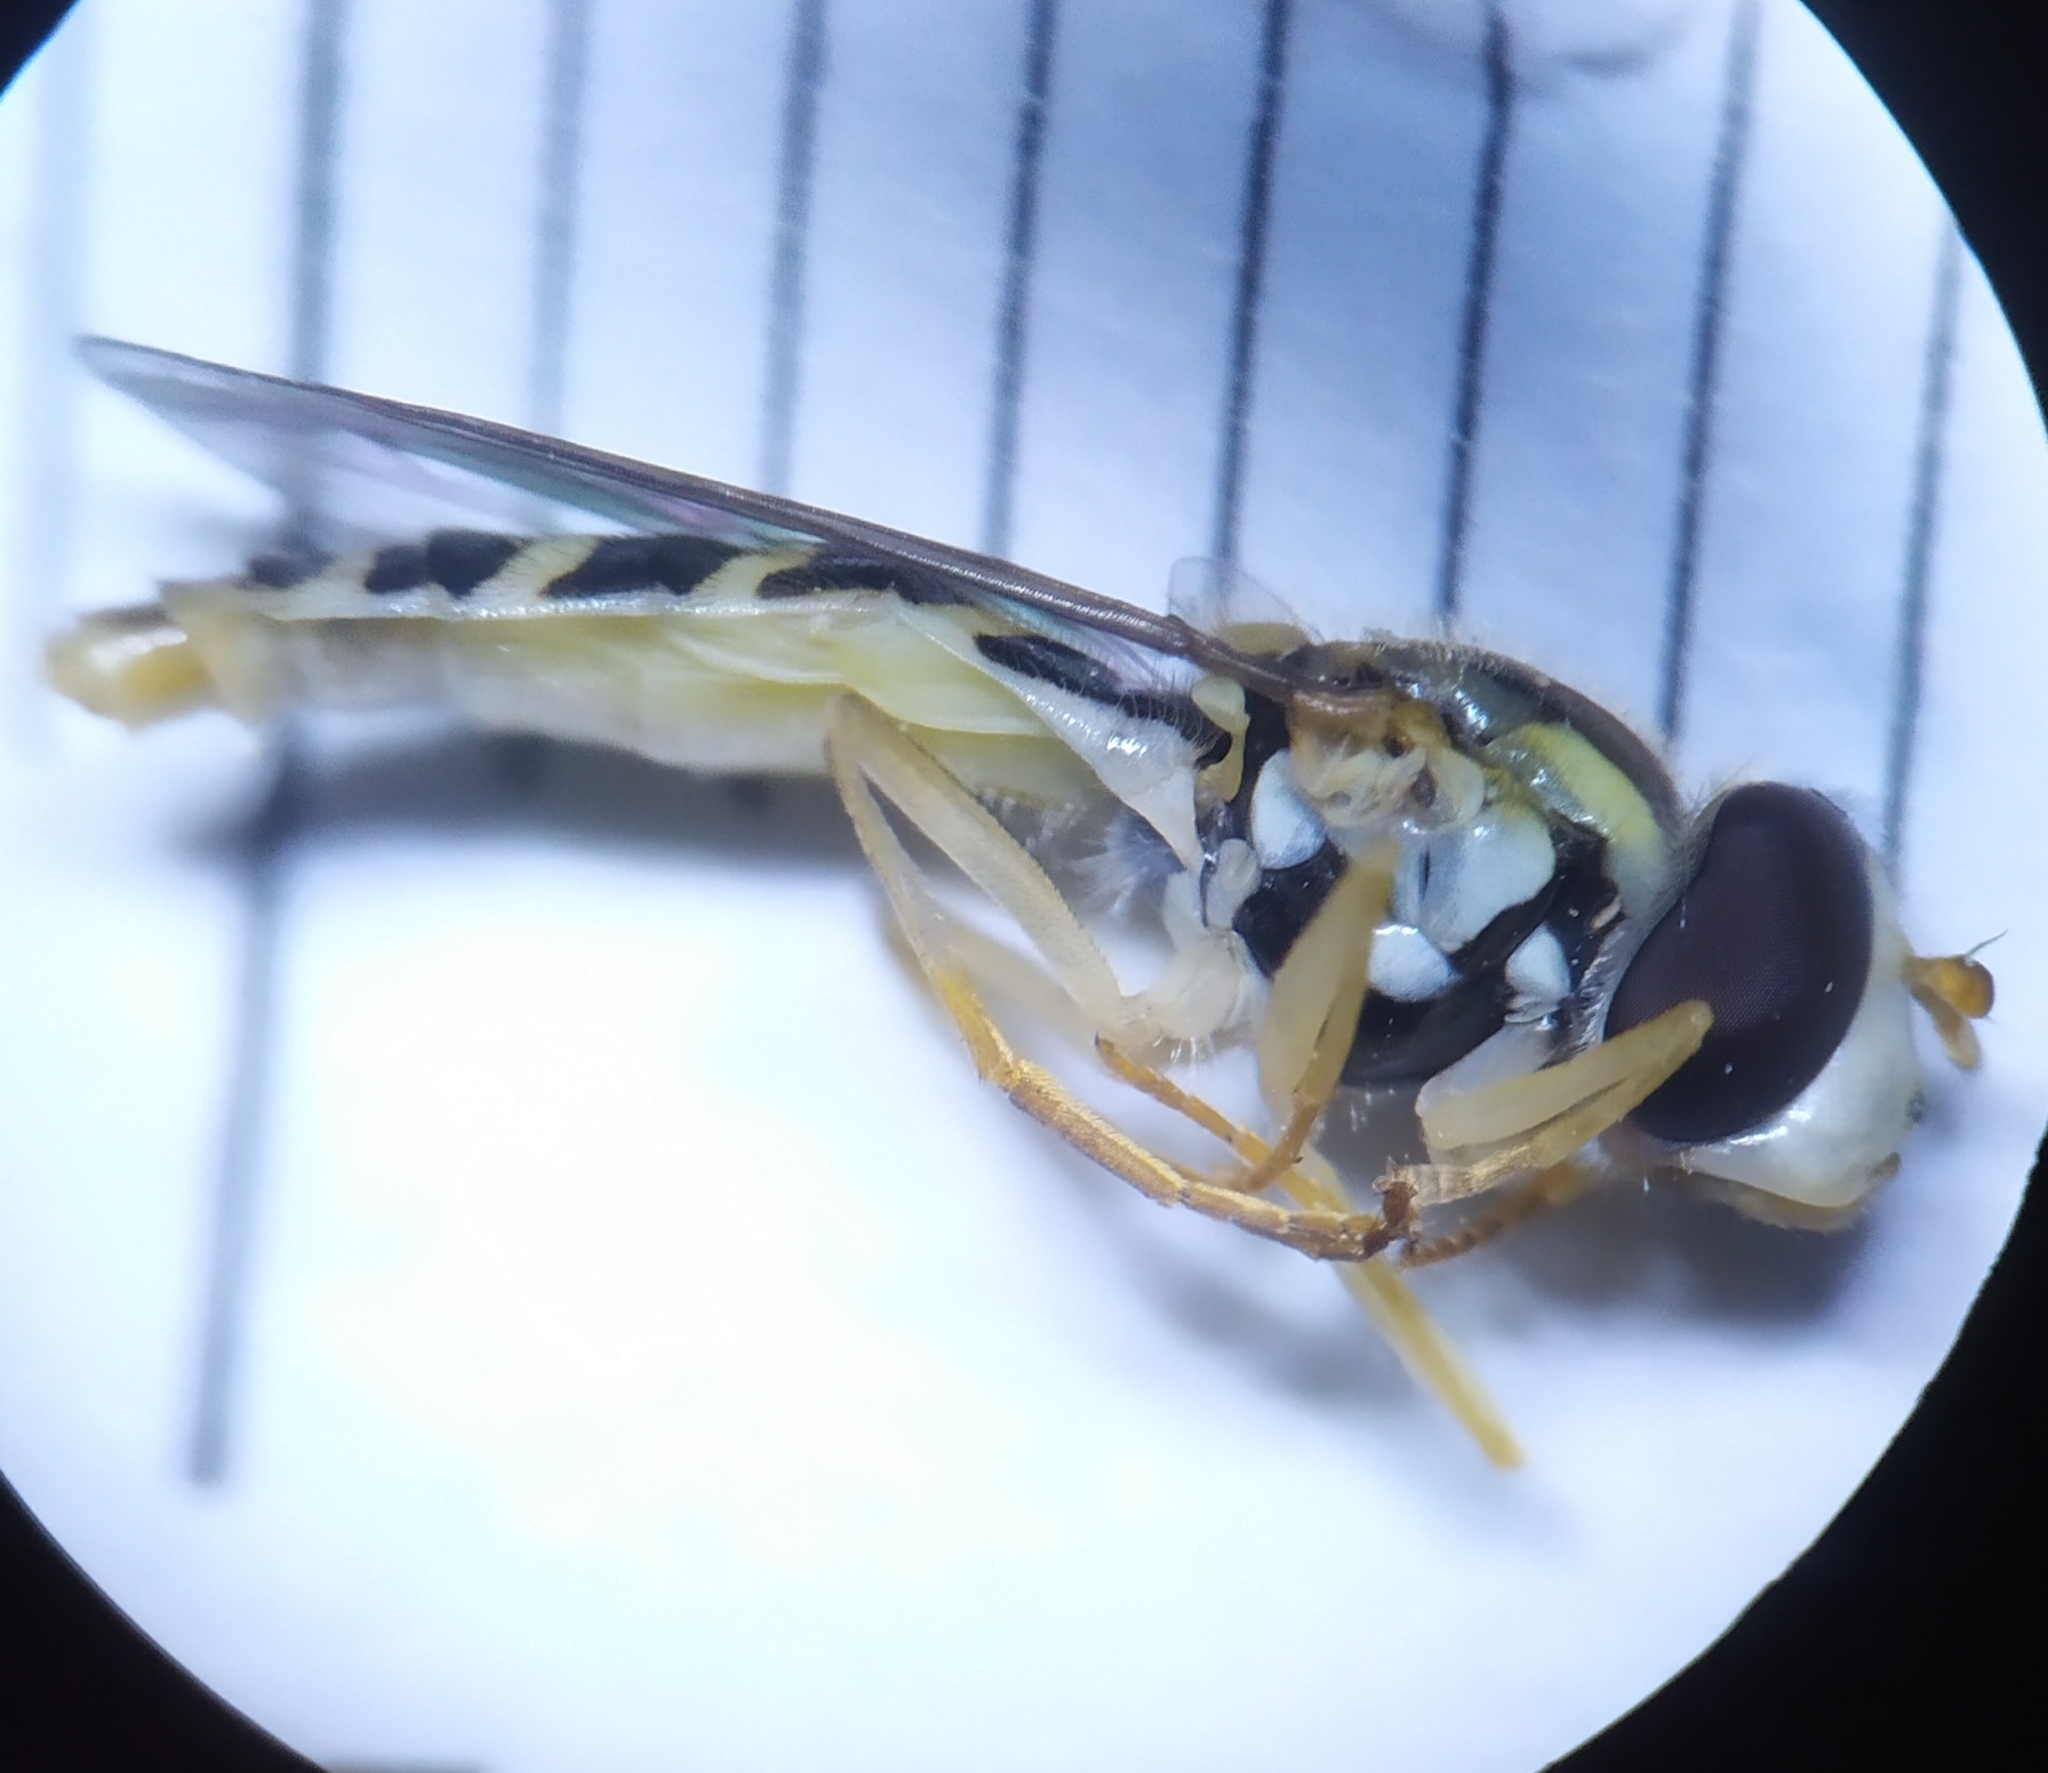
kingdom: Animalia
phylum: Arthropoda
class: Insecta
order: Diptera
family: Syrphidae
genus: Sphaerophoria
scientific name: Sphaerophoria
